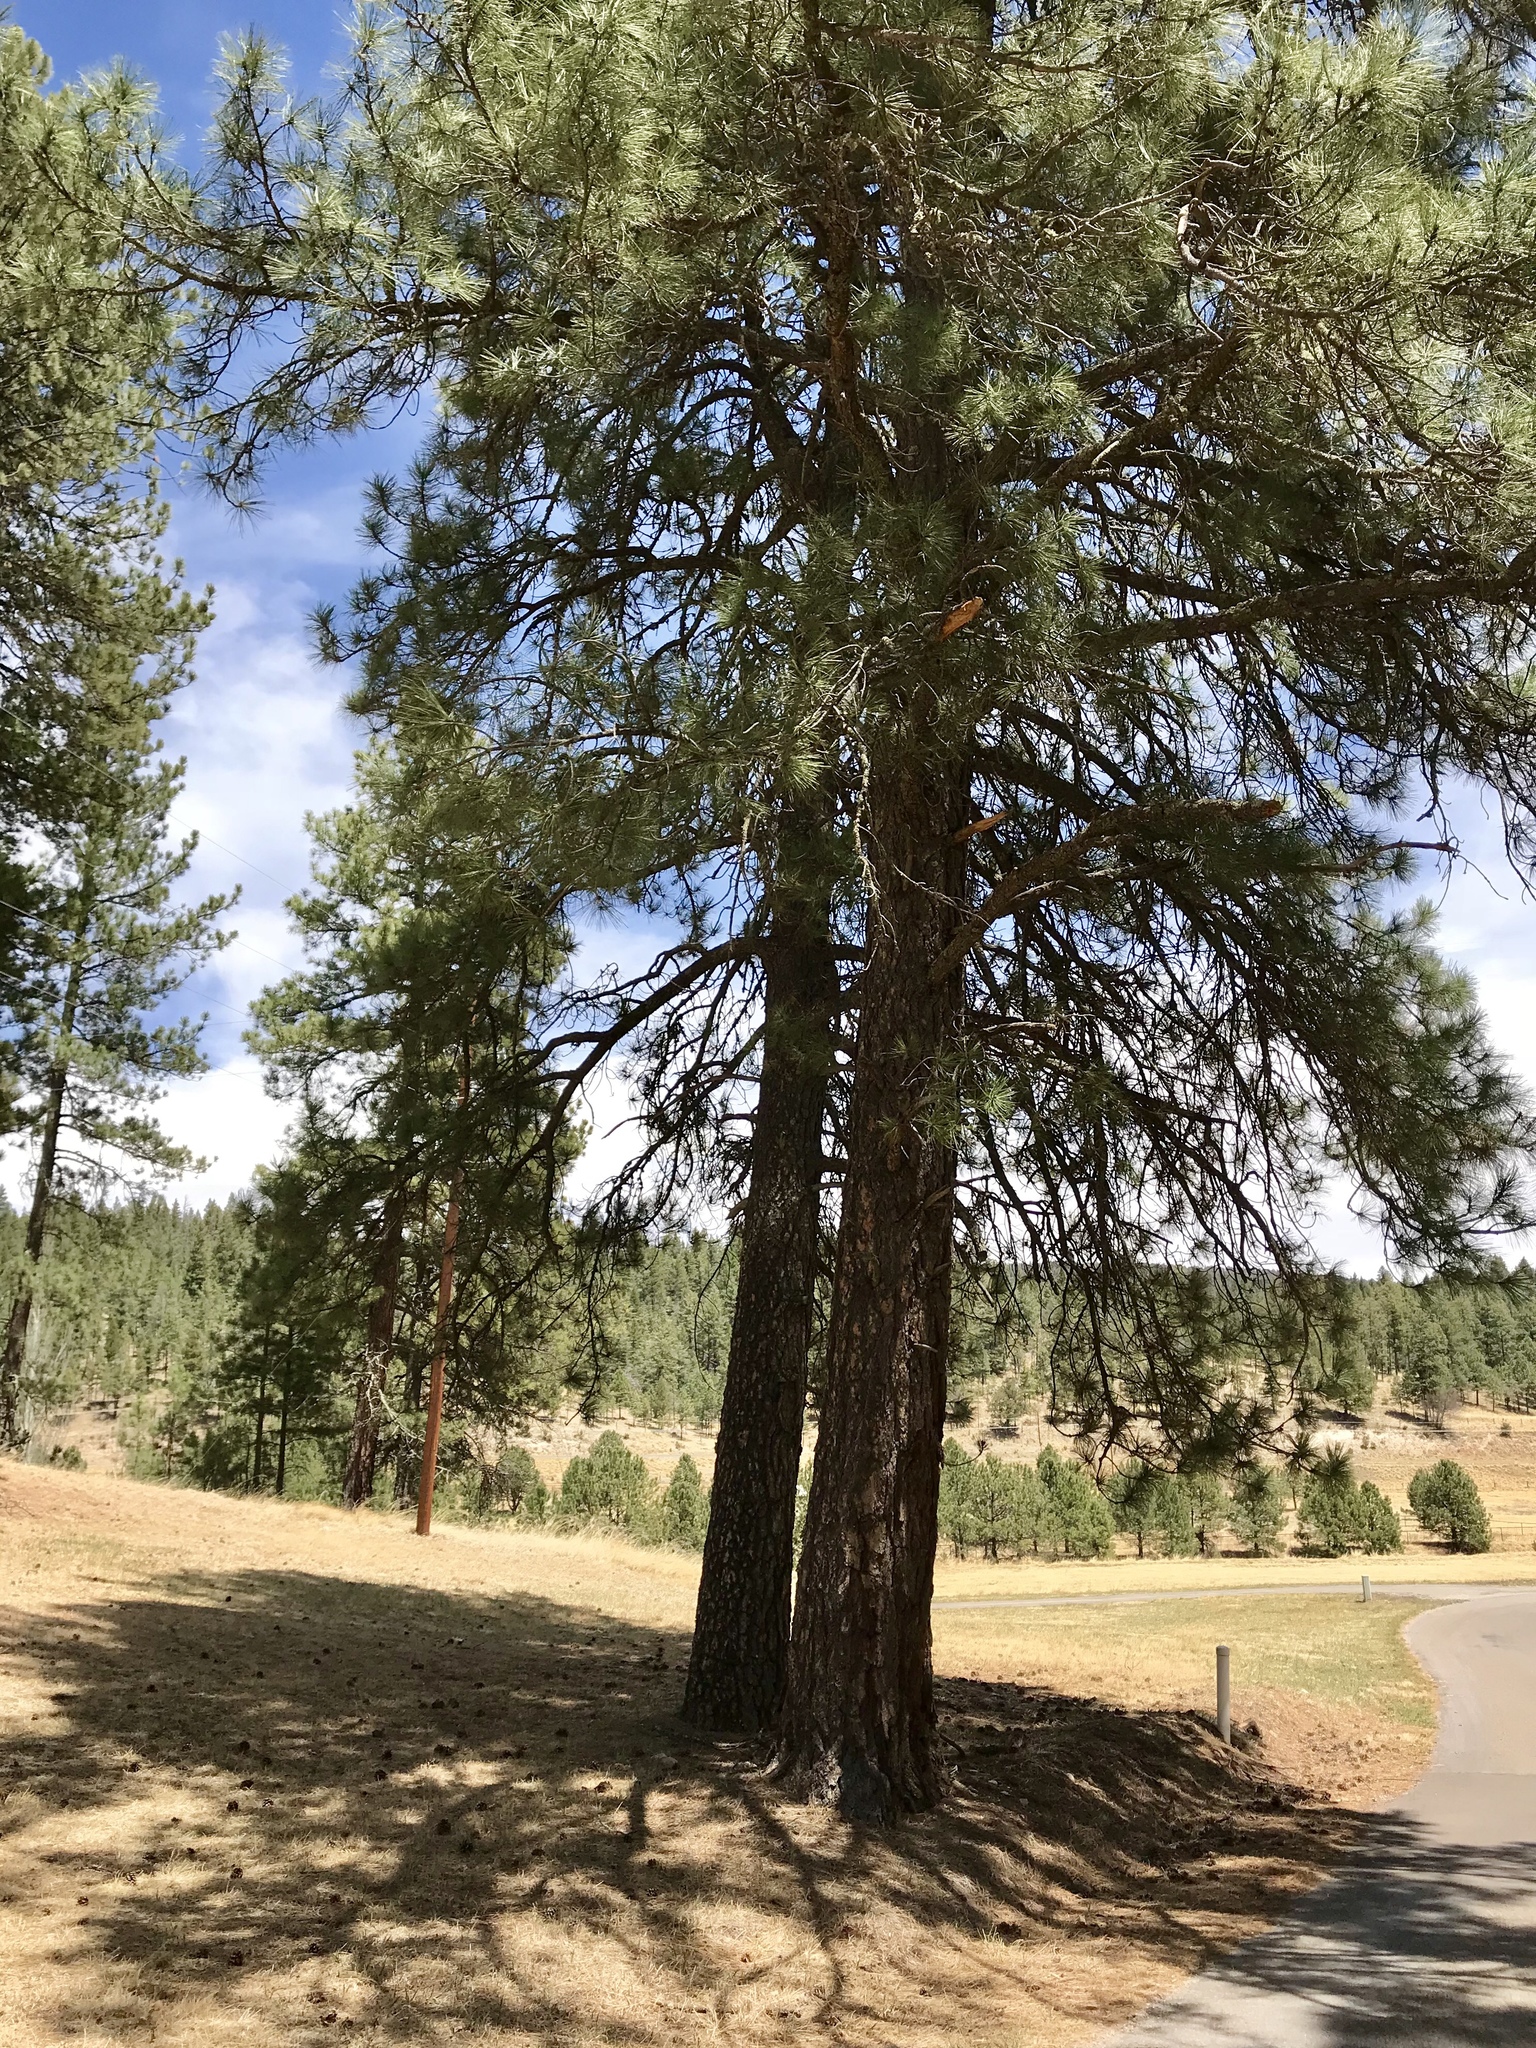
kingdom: Plantae
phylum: Tracheophyta
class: Pinopsida
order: Pinales
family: Pinaceae
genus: Pinus
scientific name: Pinus ponderosa
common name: Western yellow-pine
